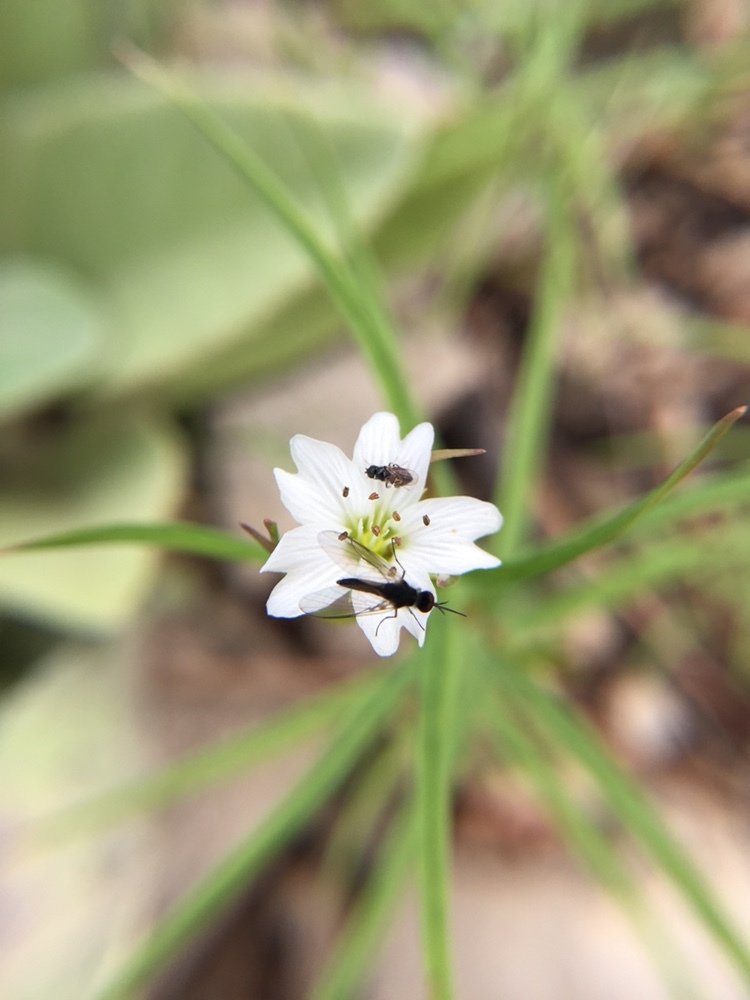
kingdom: Animalia
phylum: Arthropoda
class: Insecta
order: Diptera
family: Bombyliidae
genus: Geron
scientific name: Geron
